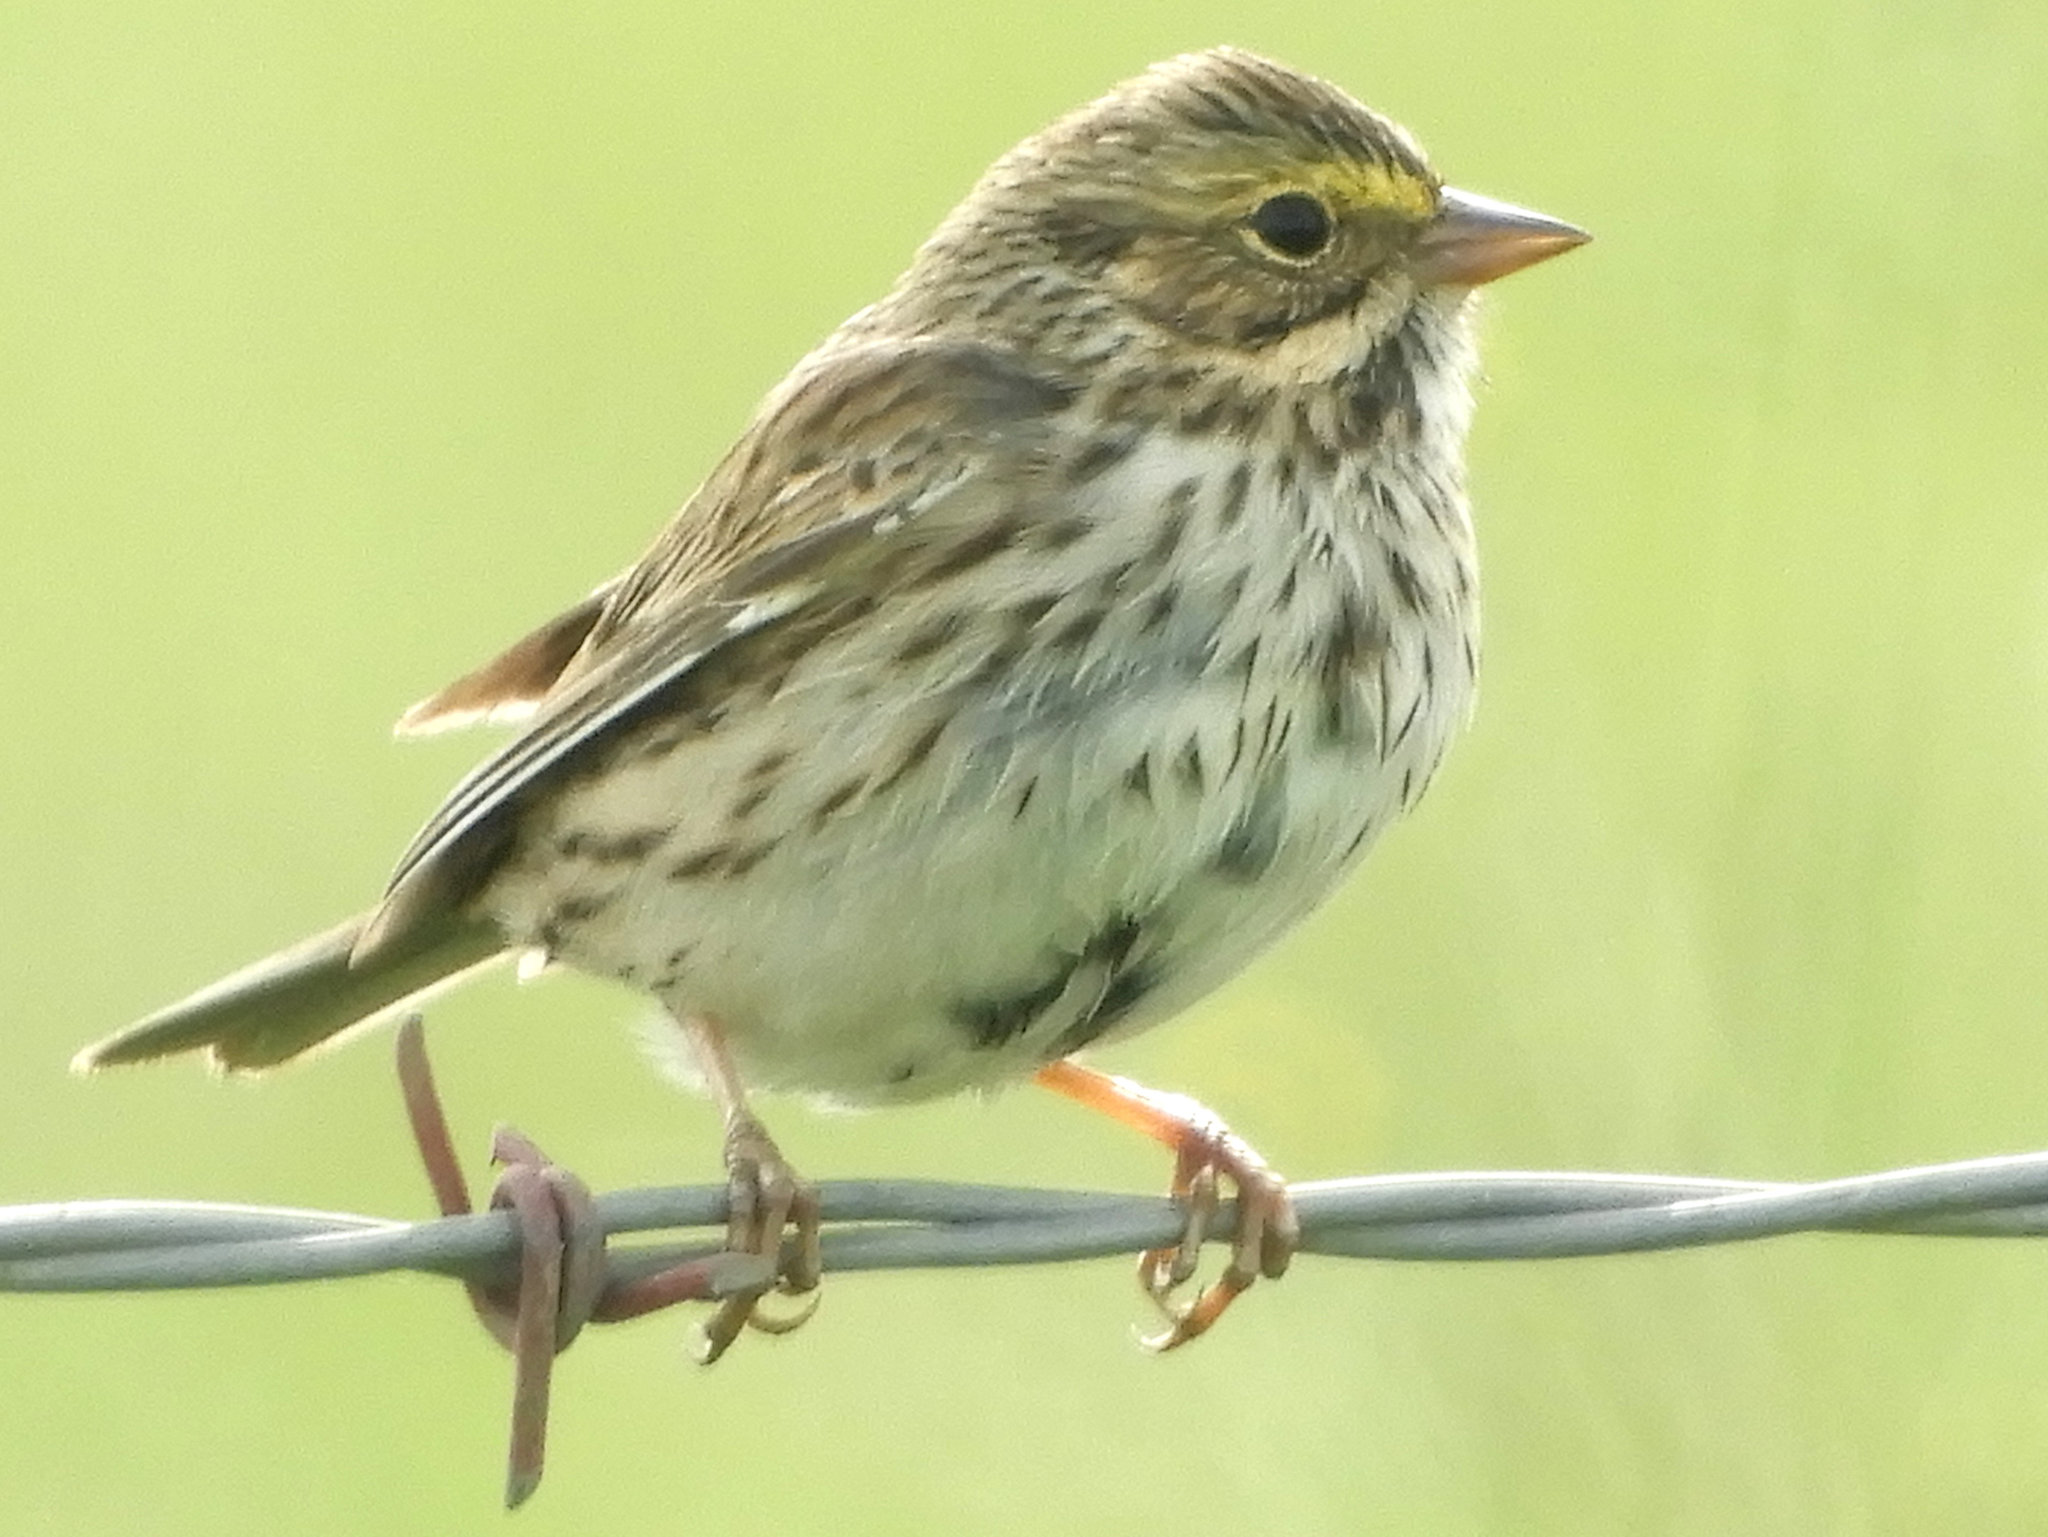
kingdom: Animalia
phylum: Chordata
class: Aves
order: Passeriformes
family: Passerellidae
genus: Passerculus
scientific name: Passerculus sandwichensis
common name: Savannah sparrow
